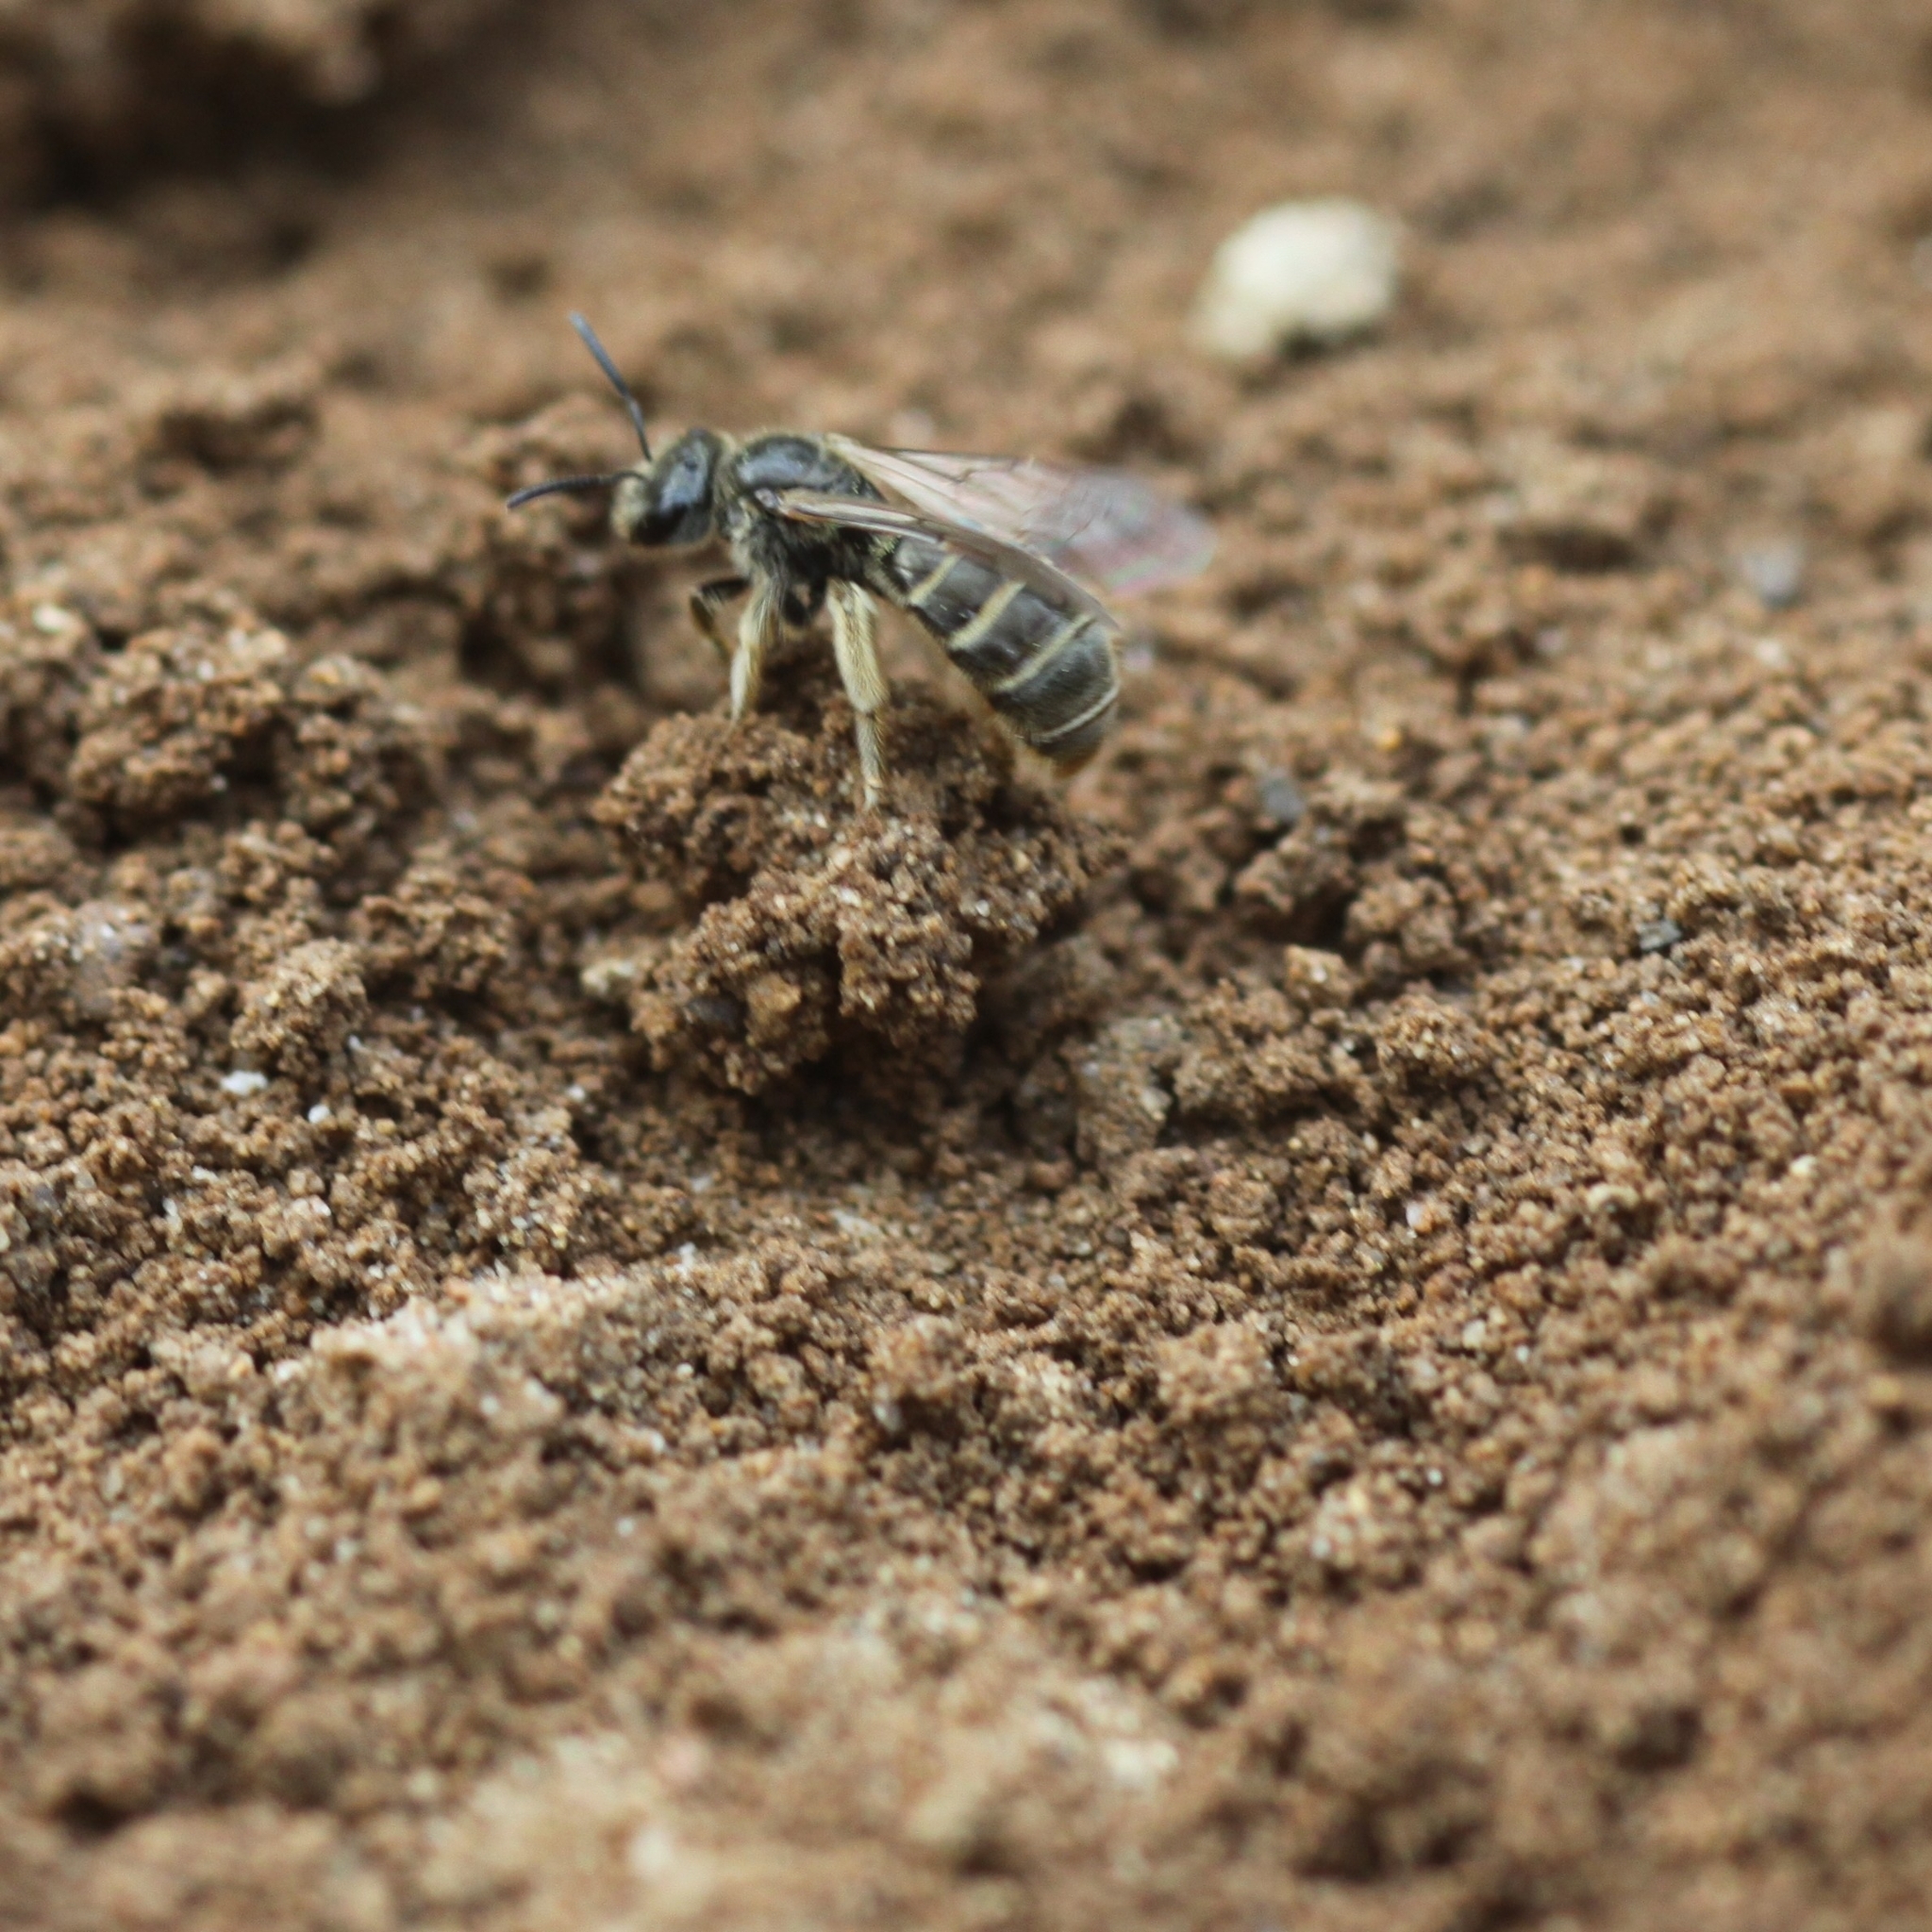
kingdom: Animalia
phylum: Arthropoda
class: Insecta
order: Hymenoptera
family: Halictidae
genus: Lasioglossum
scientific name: Lasioglossum marginatum
